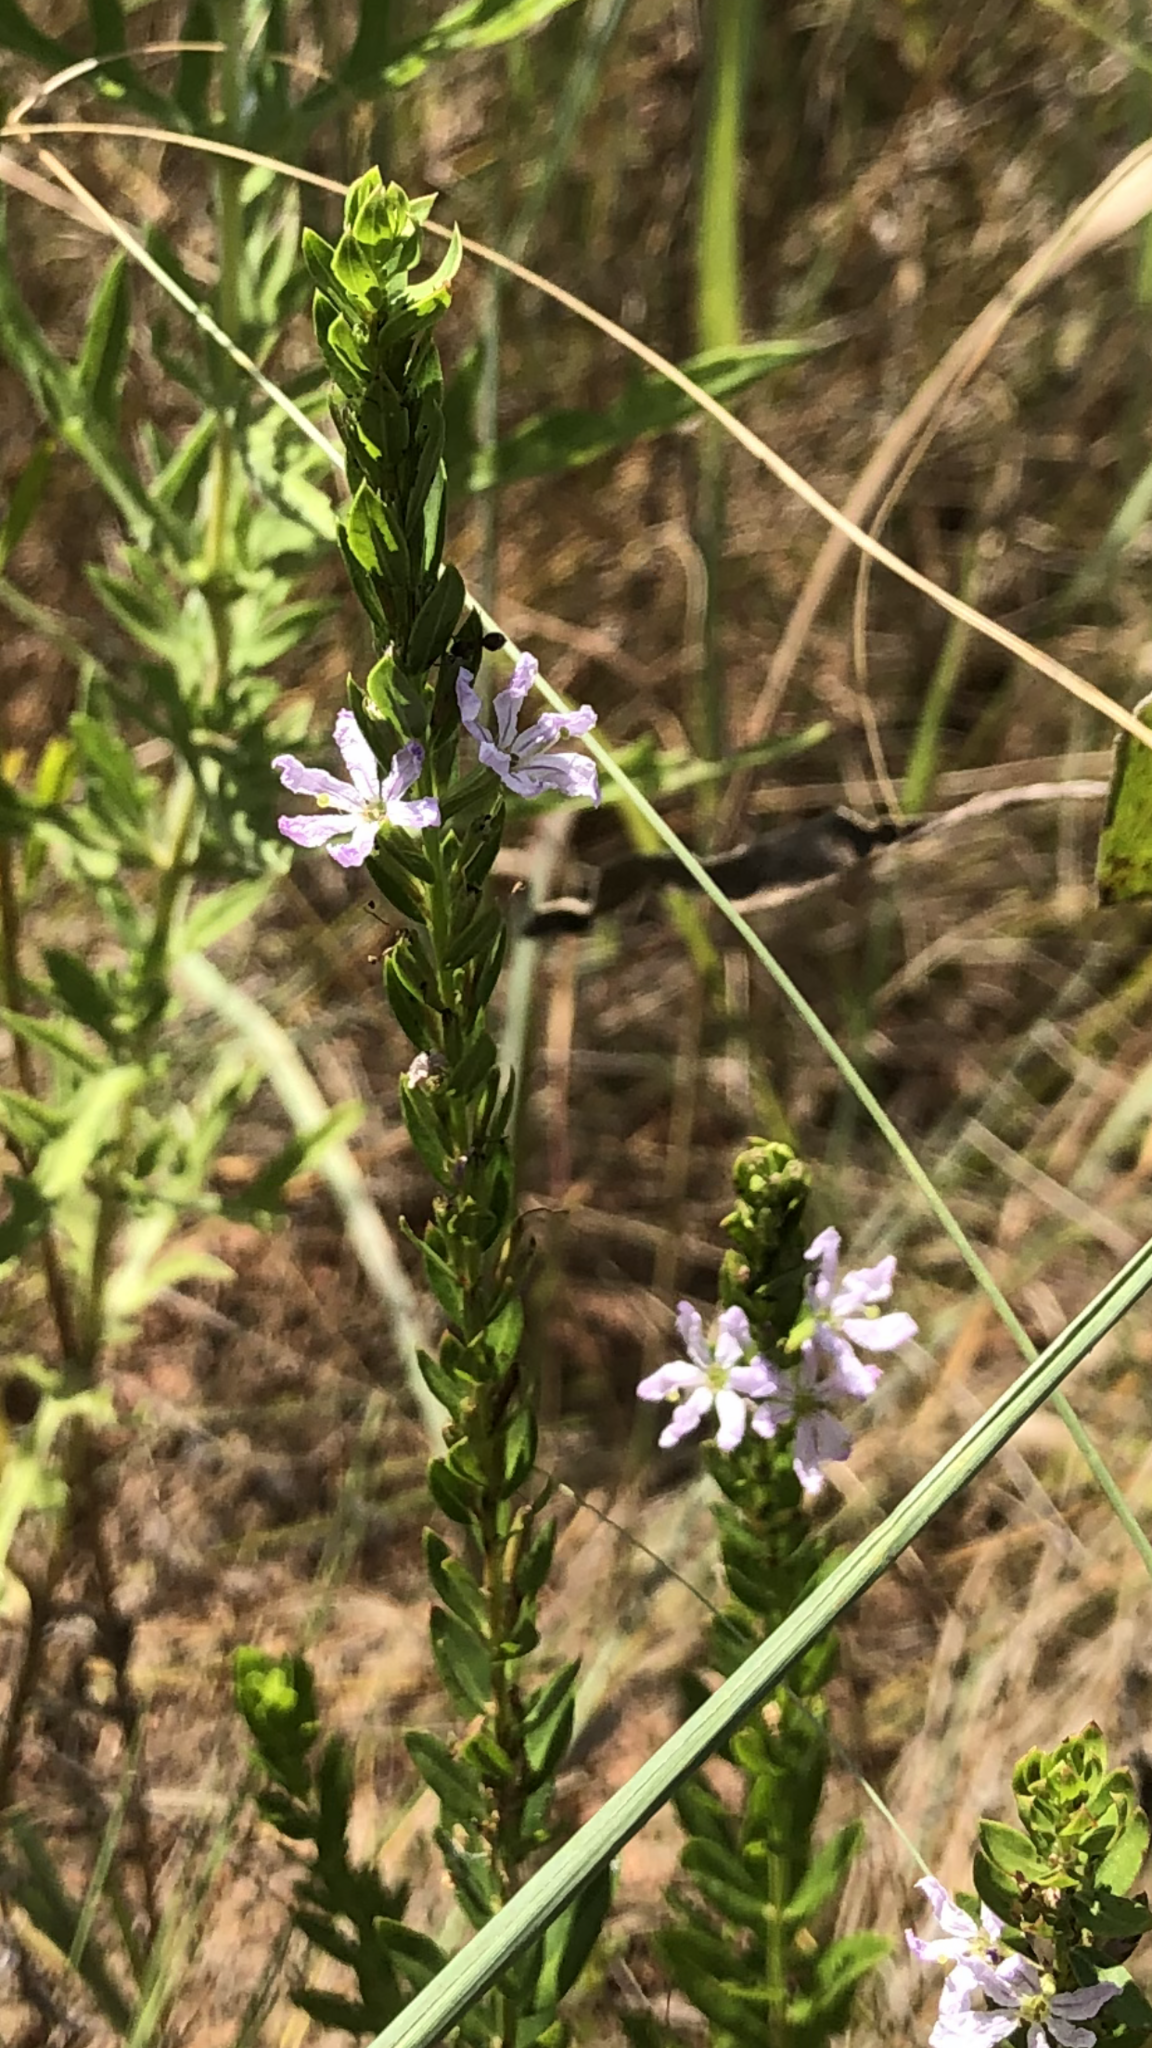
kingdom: Plantae
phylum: Tracheophyta
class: Magnoliopsida
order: Myrtales
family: Lythraceae
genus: Lythrum
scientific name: Lythrum alatum
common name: Winged loosestrife
